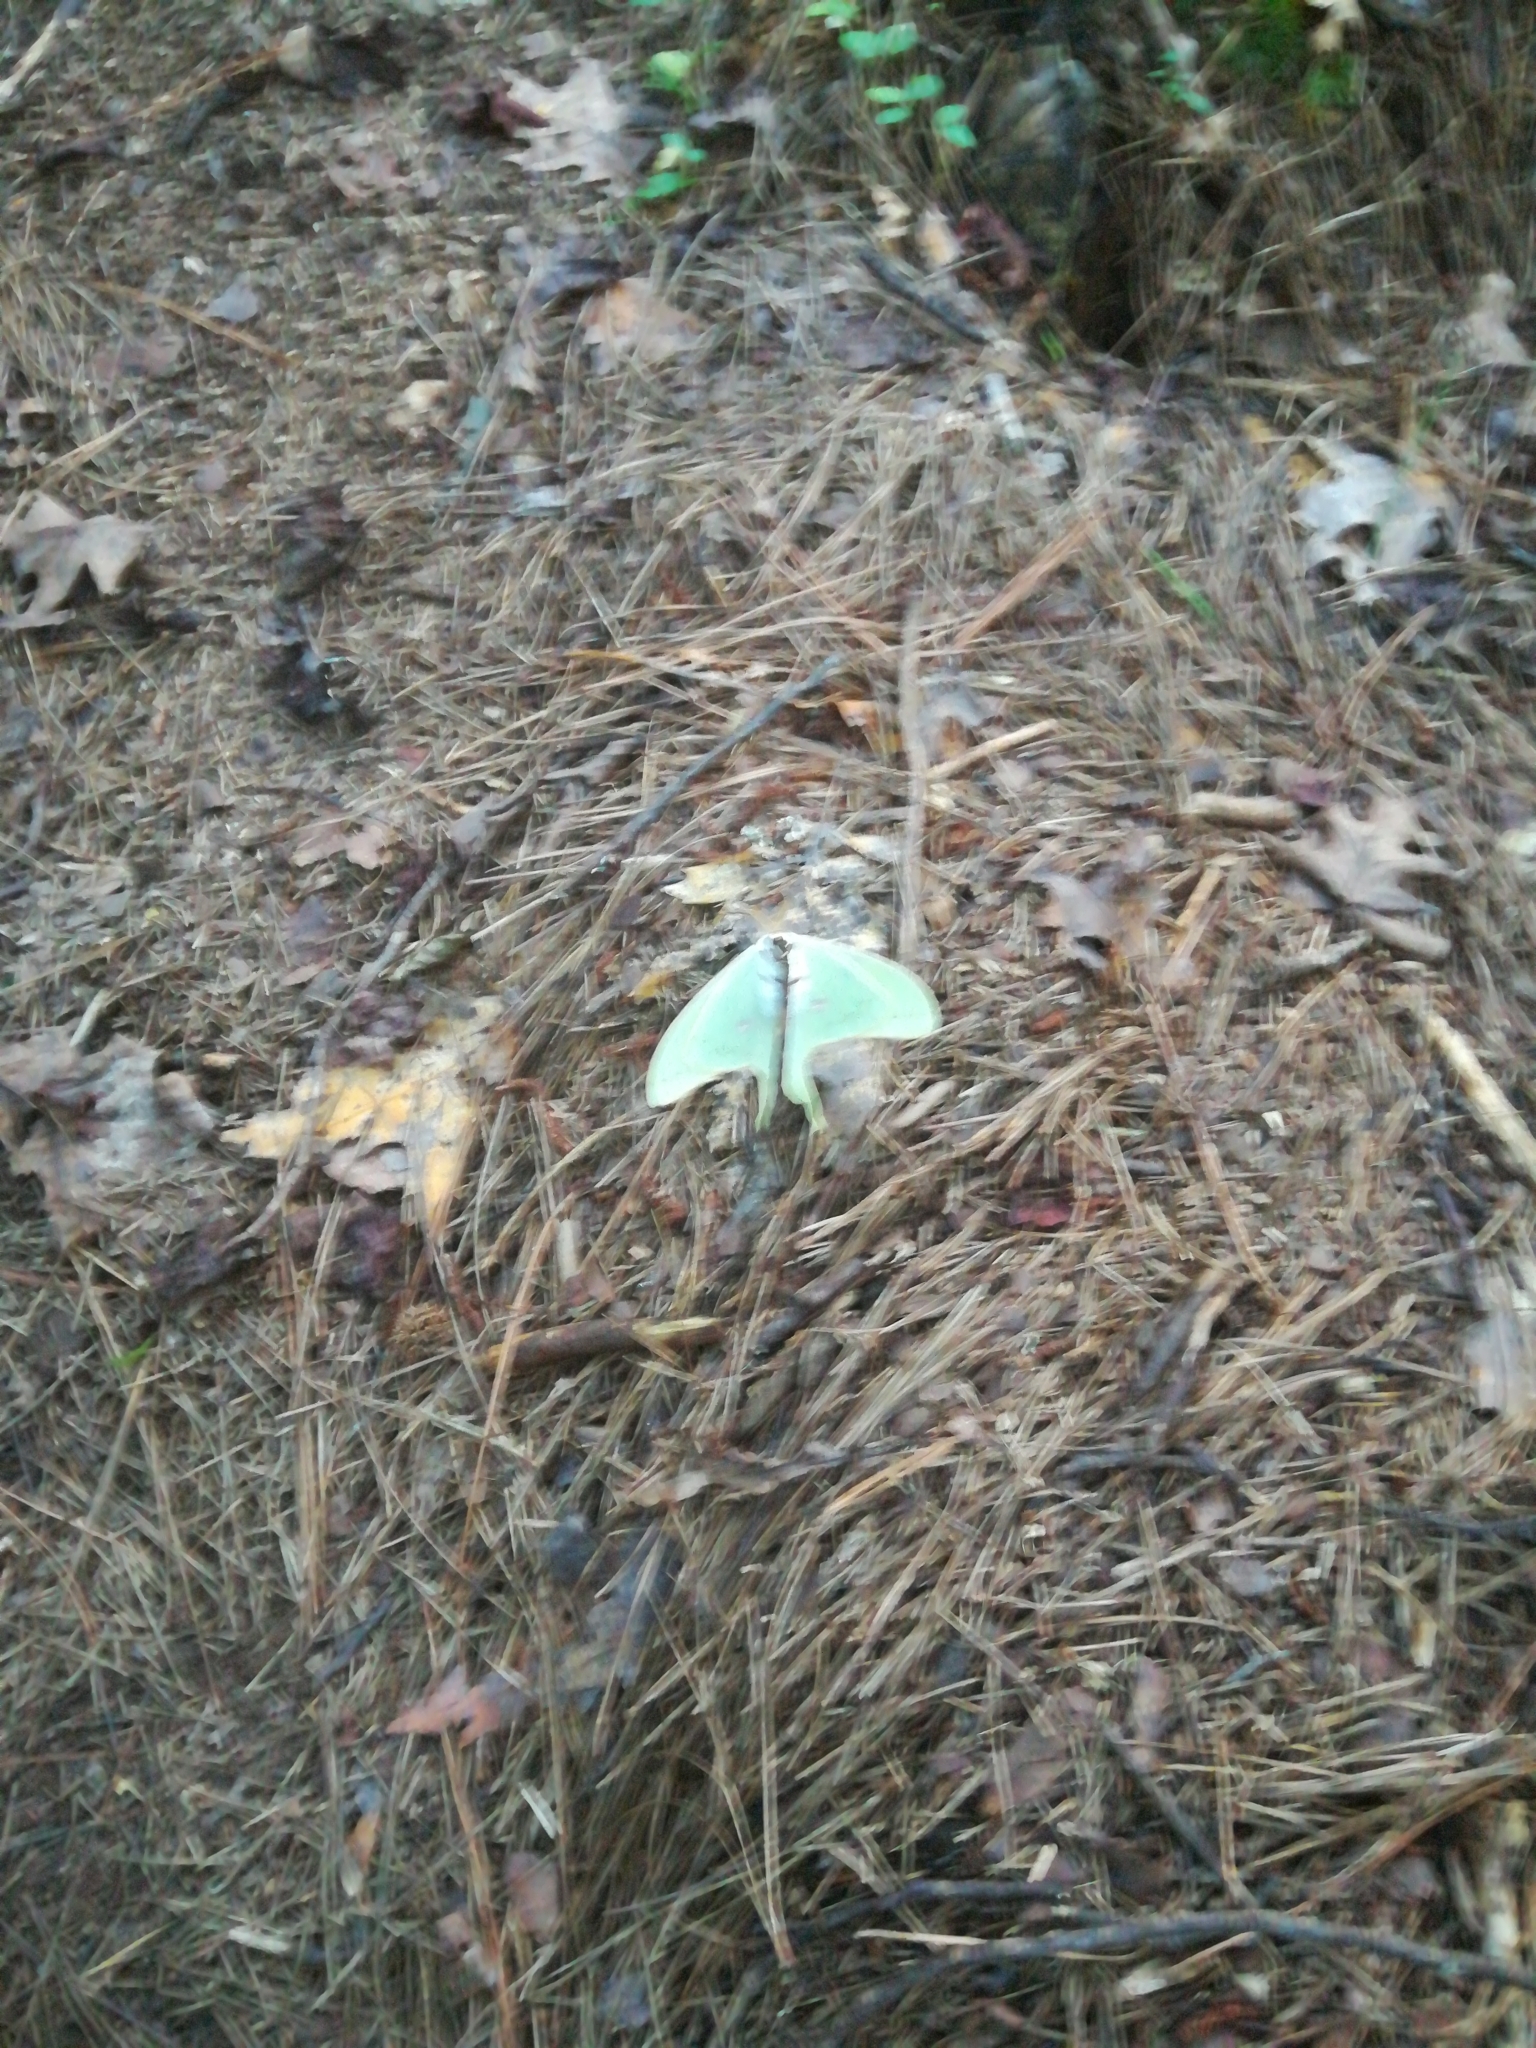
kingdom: Animalia
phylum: Arthropoda
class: Insecta
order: Lepidoptera
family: Saturniidae
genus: Actias
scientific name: Actias luna
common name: Luna moth
